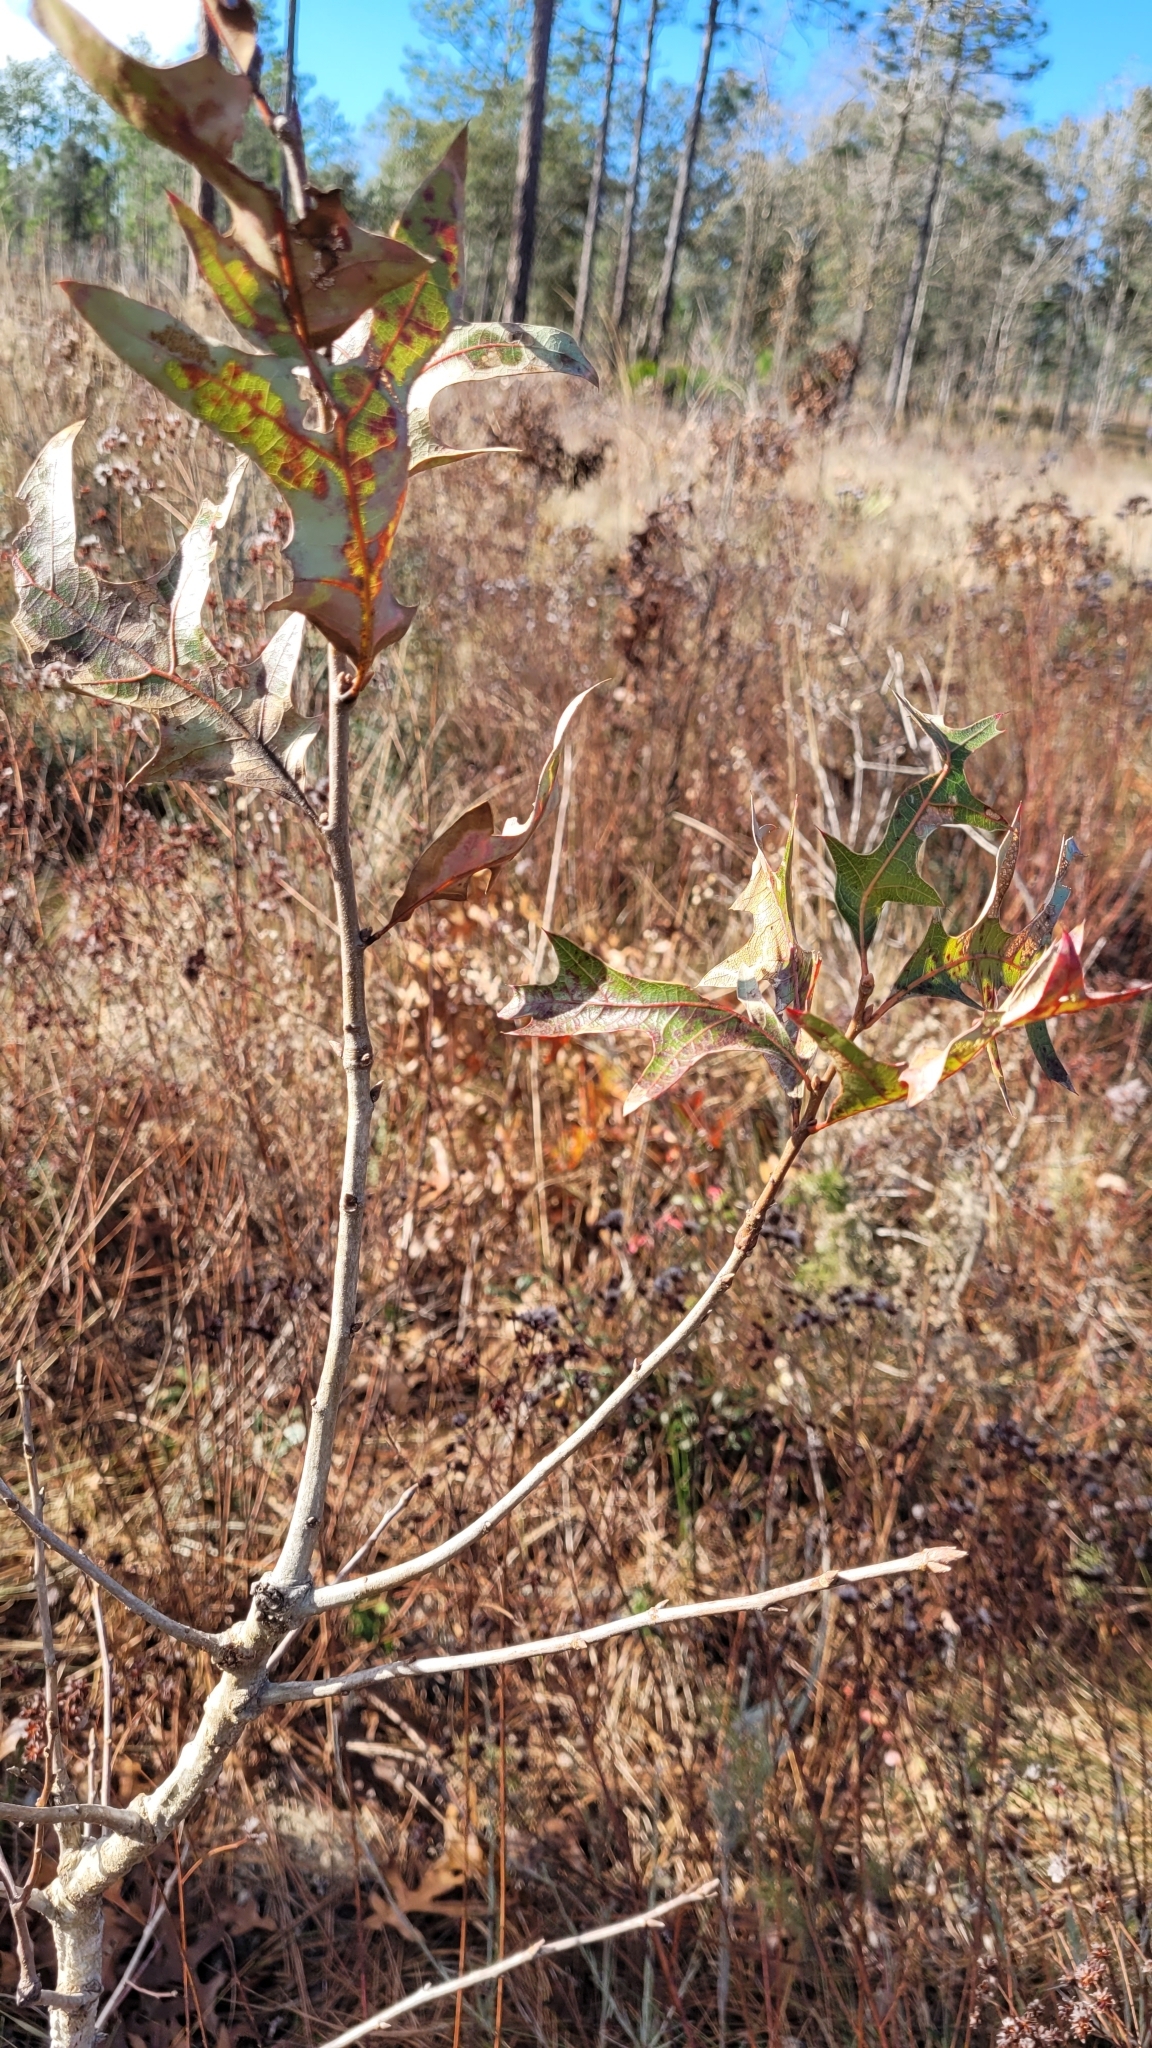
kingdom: Plantae
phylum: Tracheophyta
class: Magnoliopsida
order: Fagales
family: Fagaceae
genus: Quercus
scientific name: Quercus laevis
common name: Turkey oak
